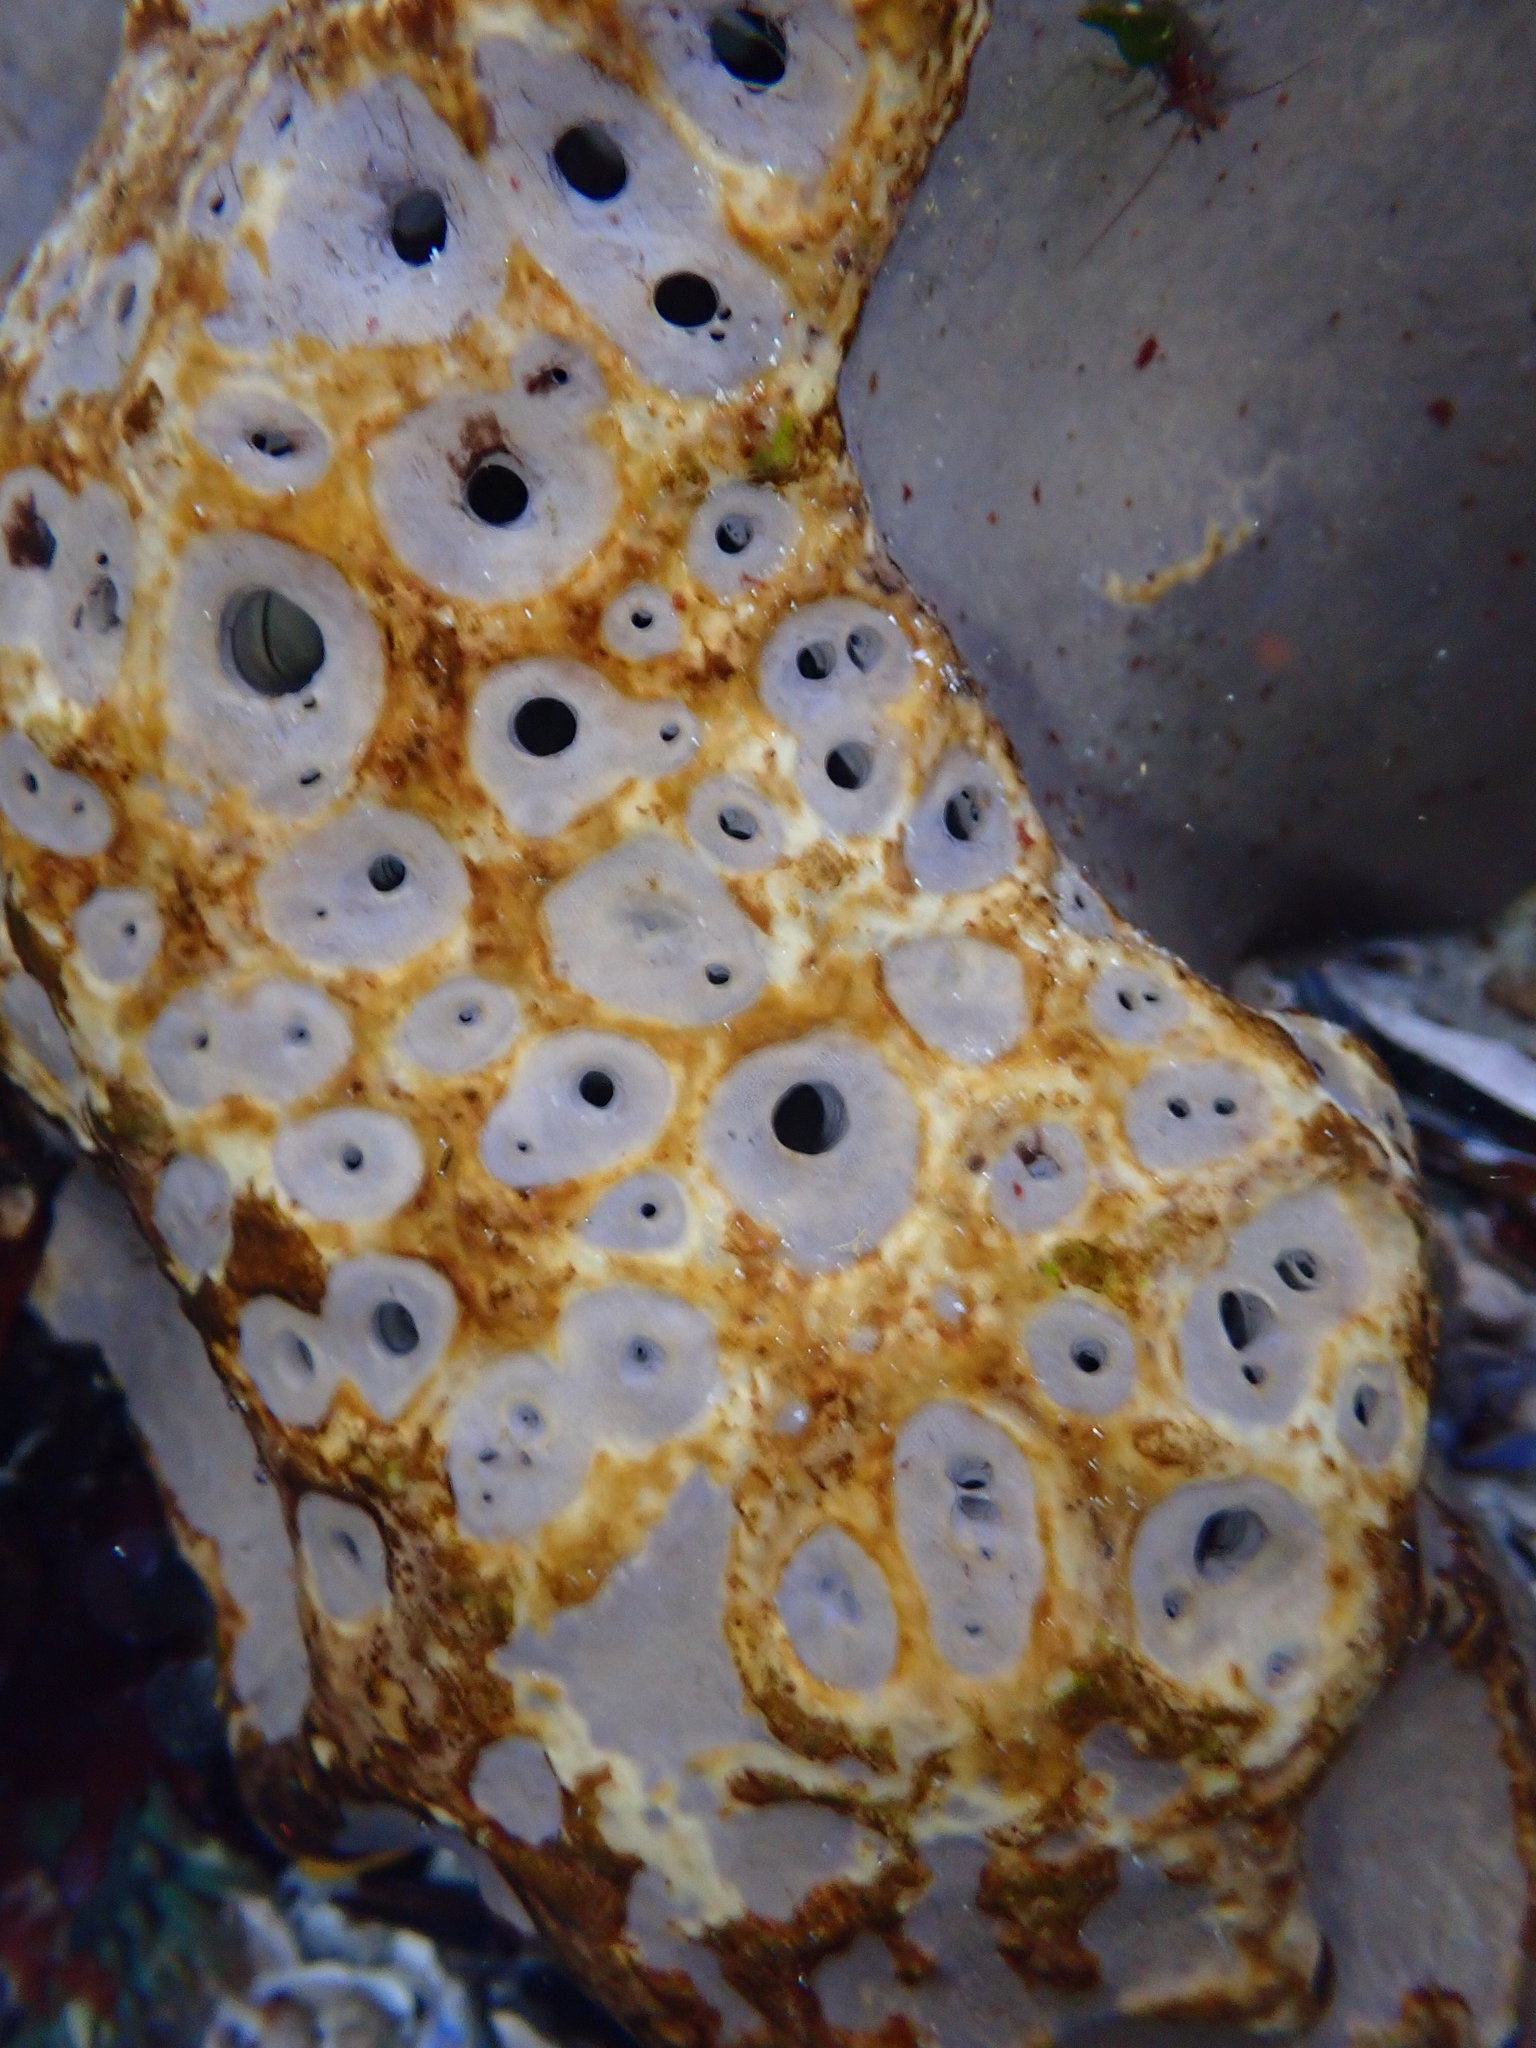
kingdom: Animalia
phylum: Porifera
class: Demospongiae
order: Clionaida
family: Clionaidae
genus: Spheciospongia
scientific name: Spheciospongia confoederata
